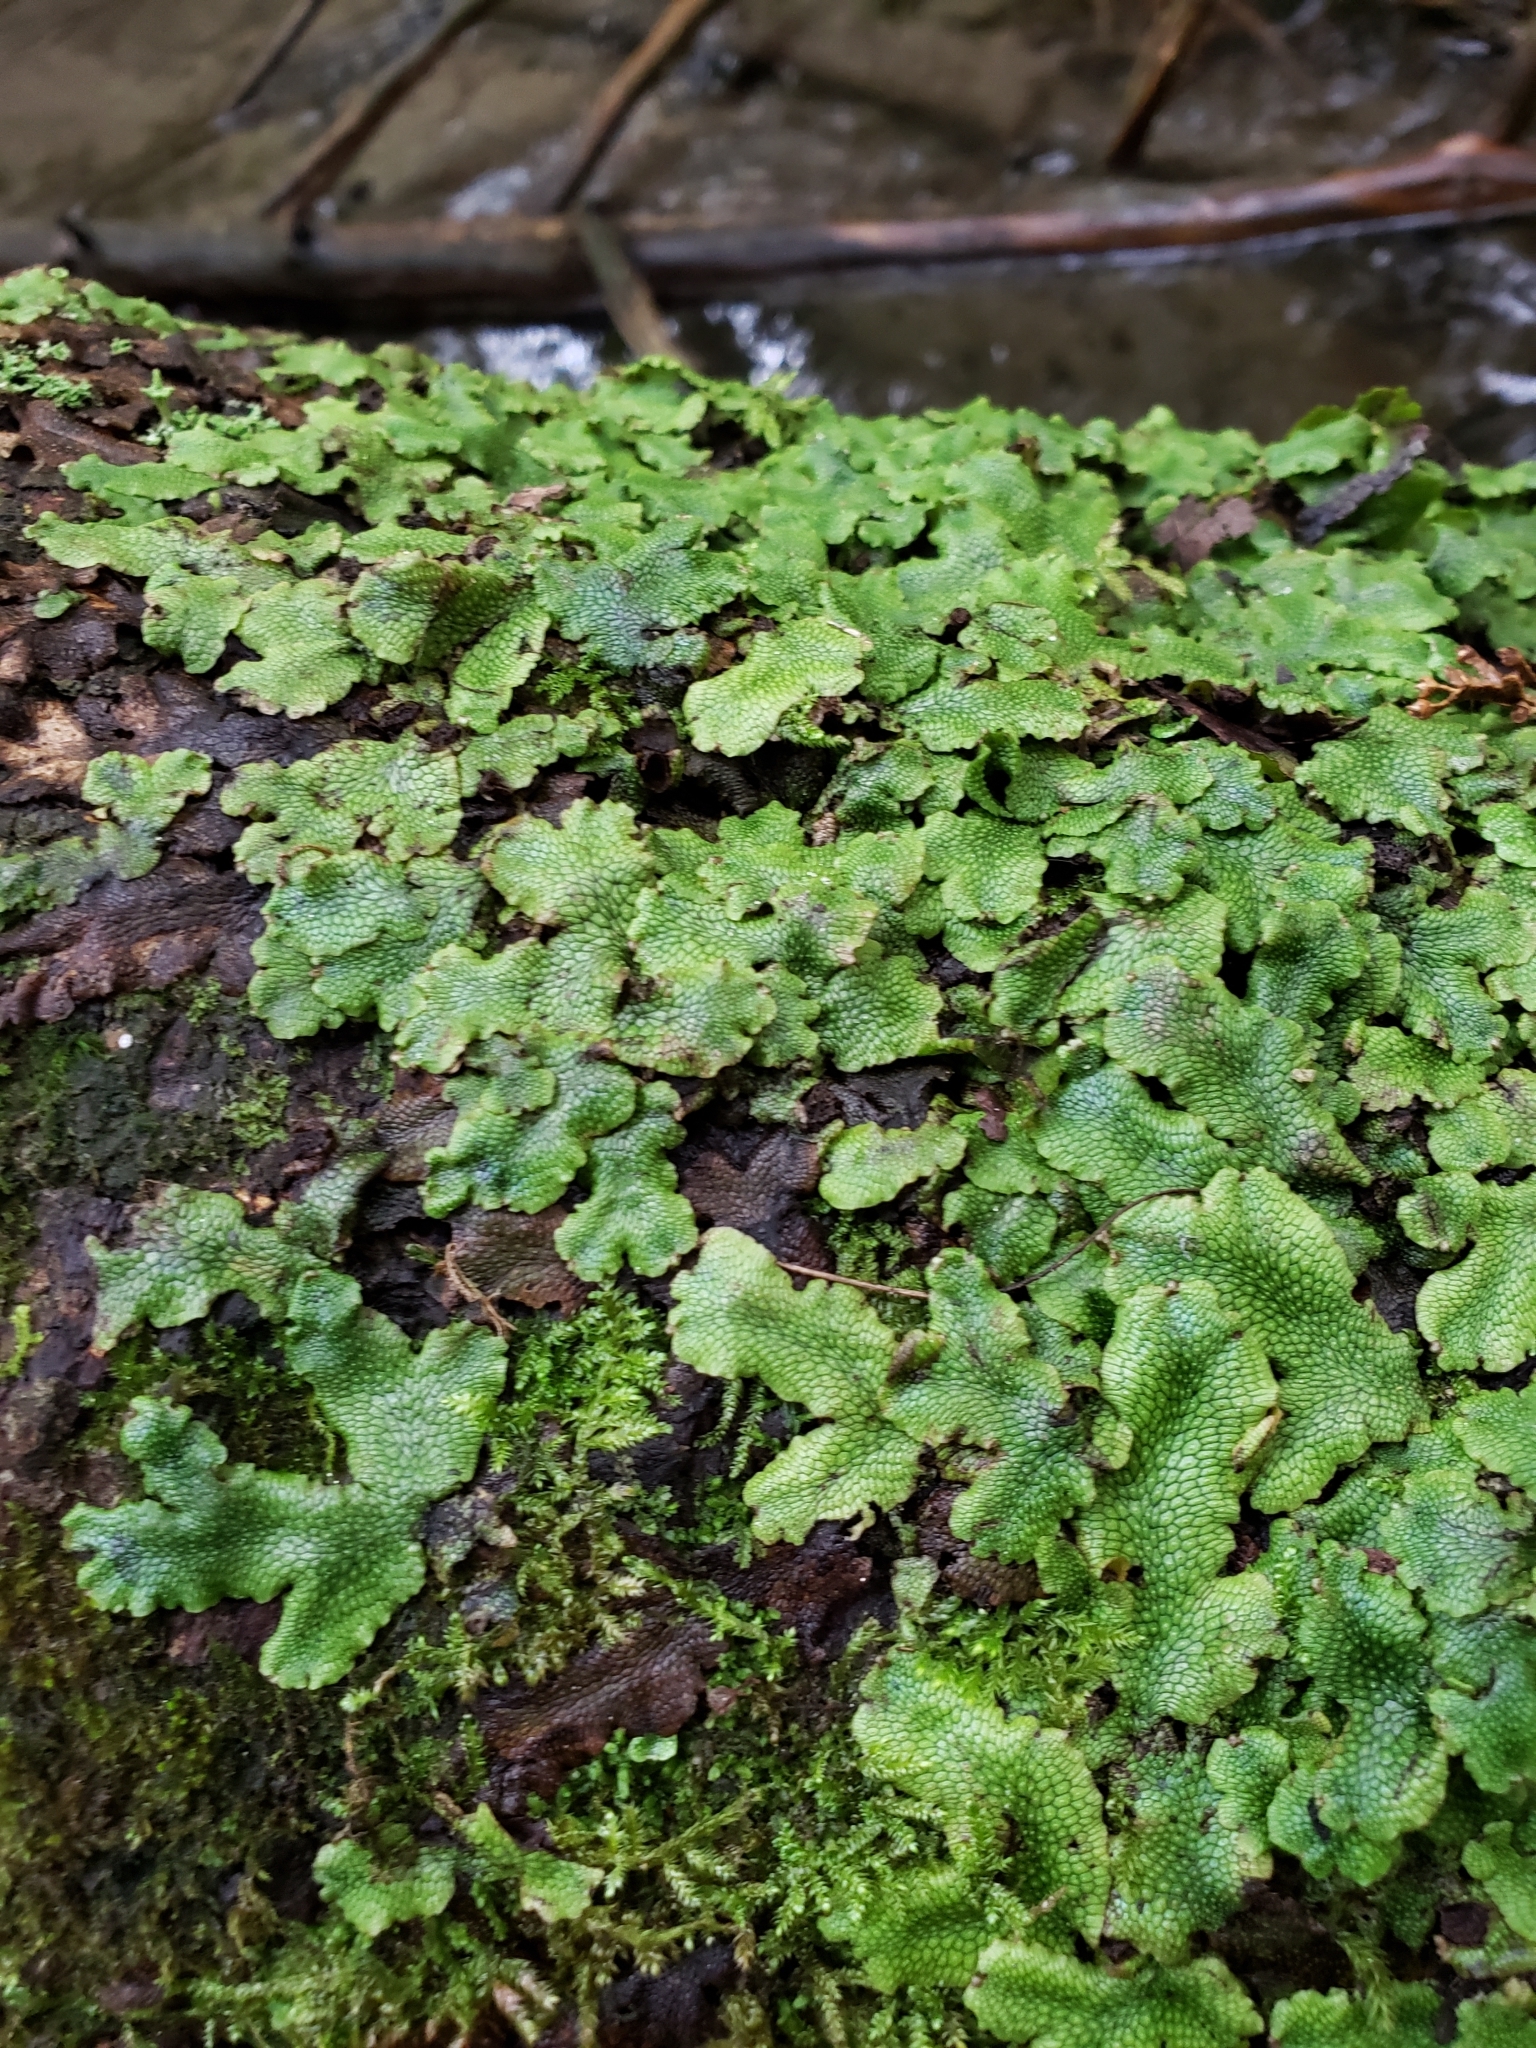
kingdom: Plantae
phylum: Marchantiophyta
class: Marchantiopsida
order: Marchantiales
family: Conocephalaceae
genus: Conocephalum
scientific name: Conocephalum salebrosum
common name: Cat-tongue liverwort
